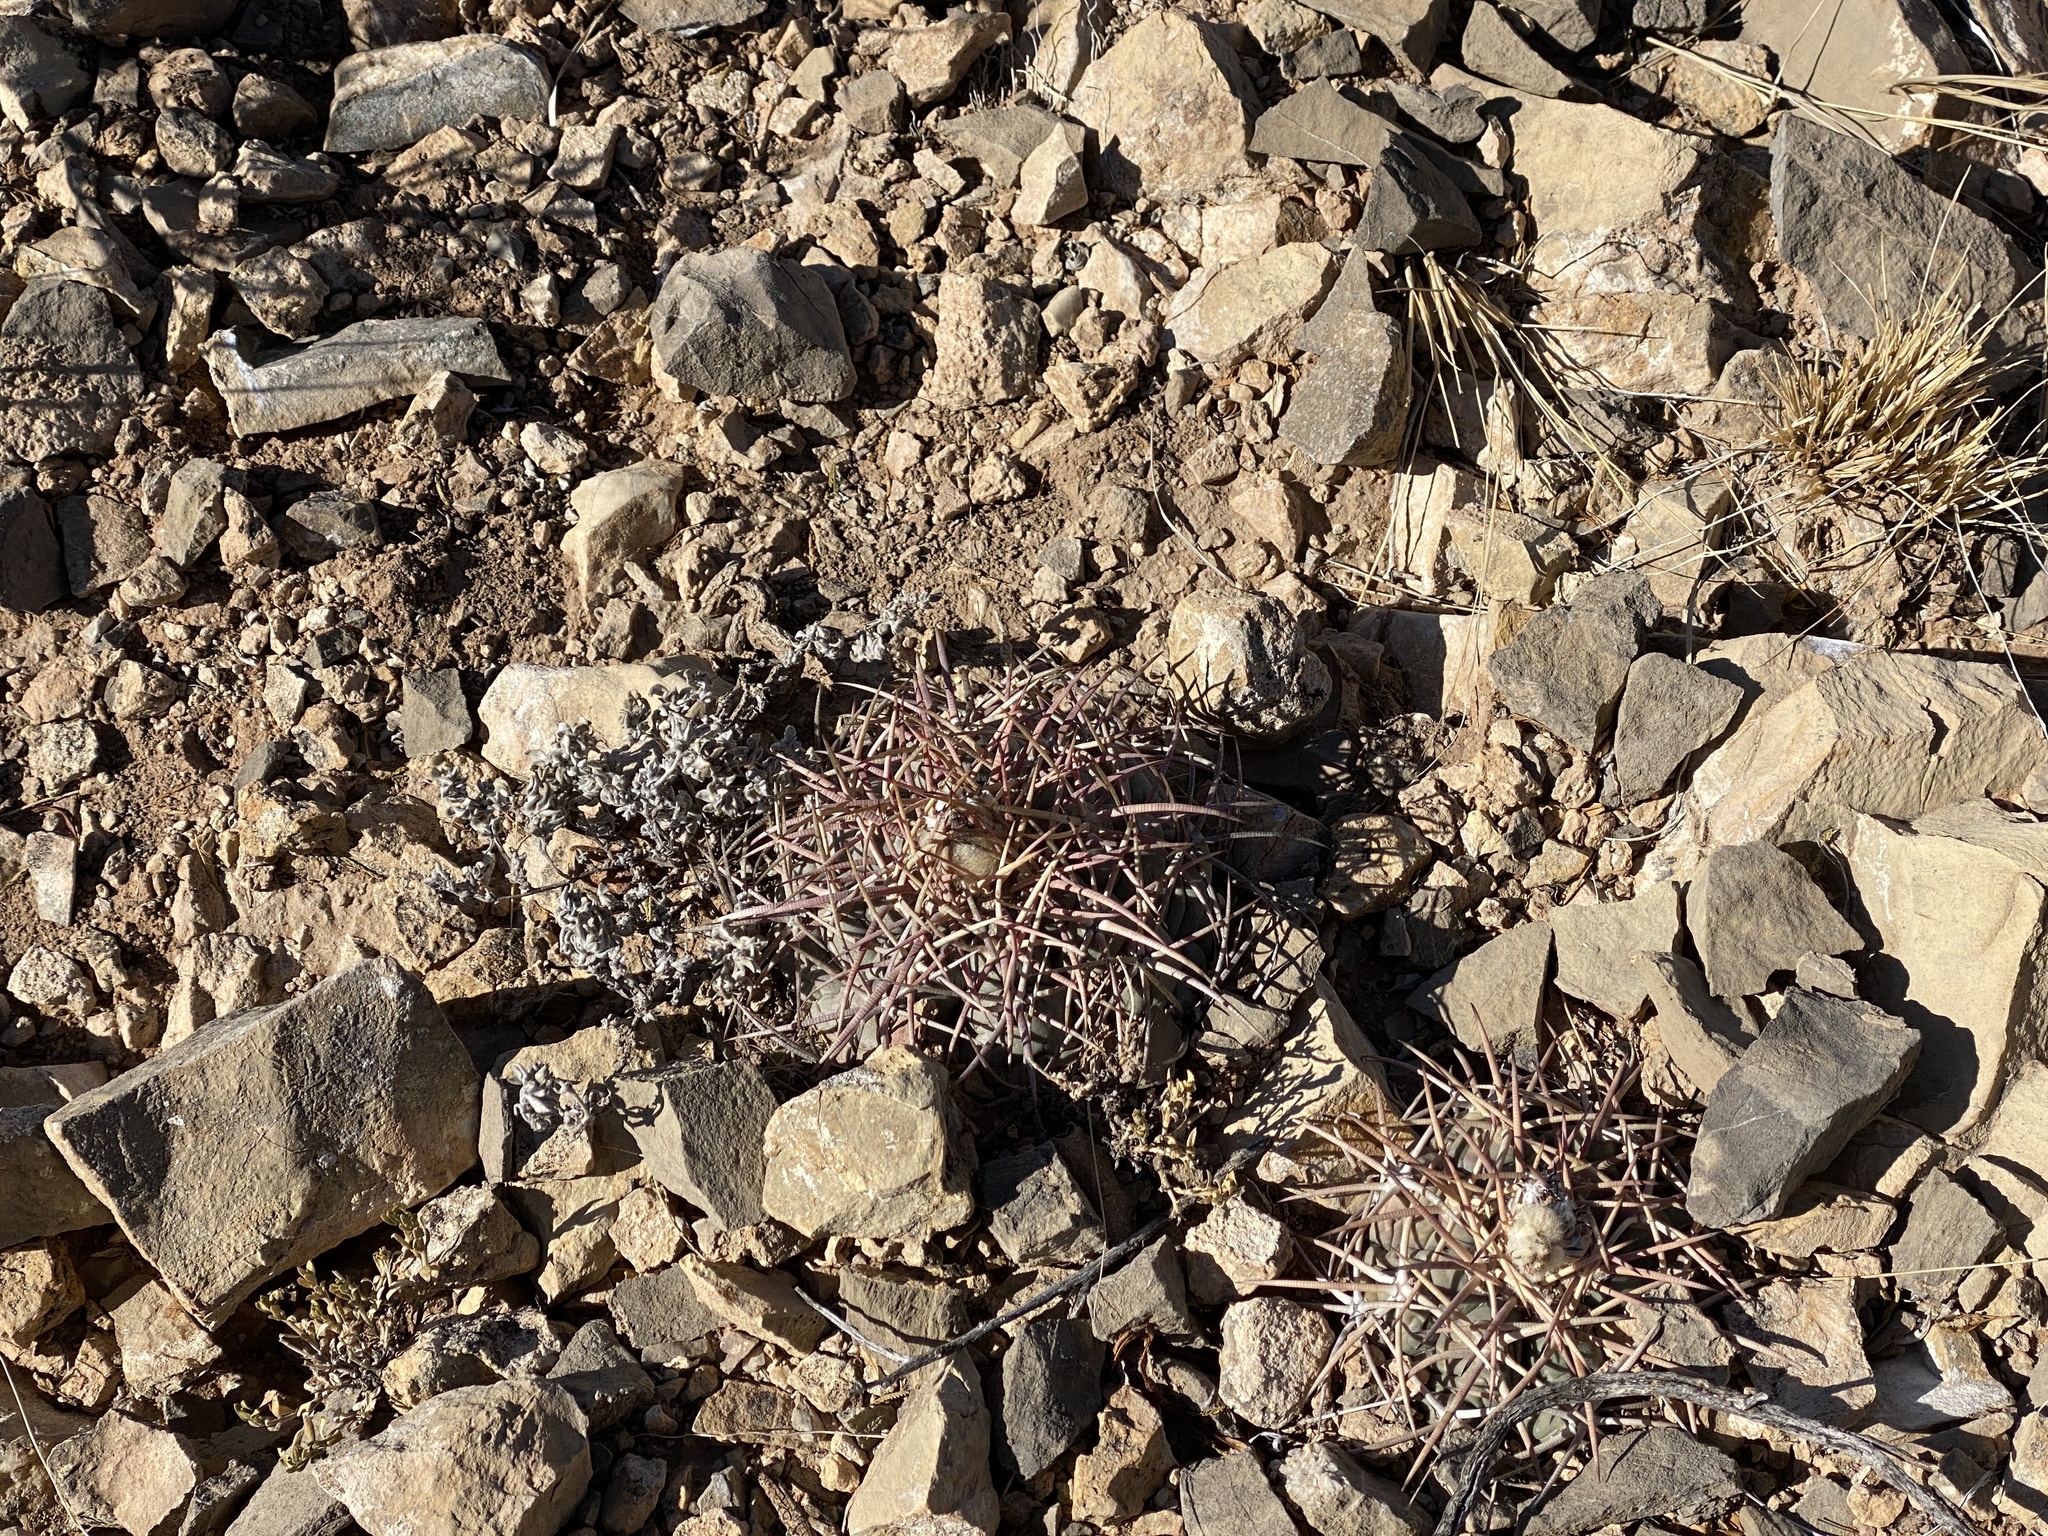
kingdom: Plantae
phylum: Tracheophyta
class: Magnoliopsida
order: Caryophyllales
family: Cactaceae
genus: Echinocactus
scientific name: Echinocactus horizonthalonius
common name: Devilshead
